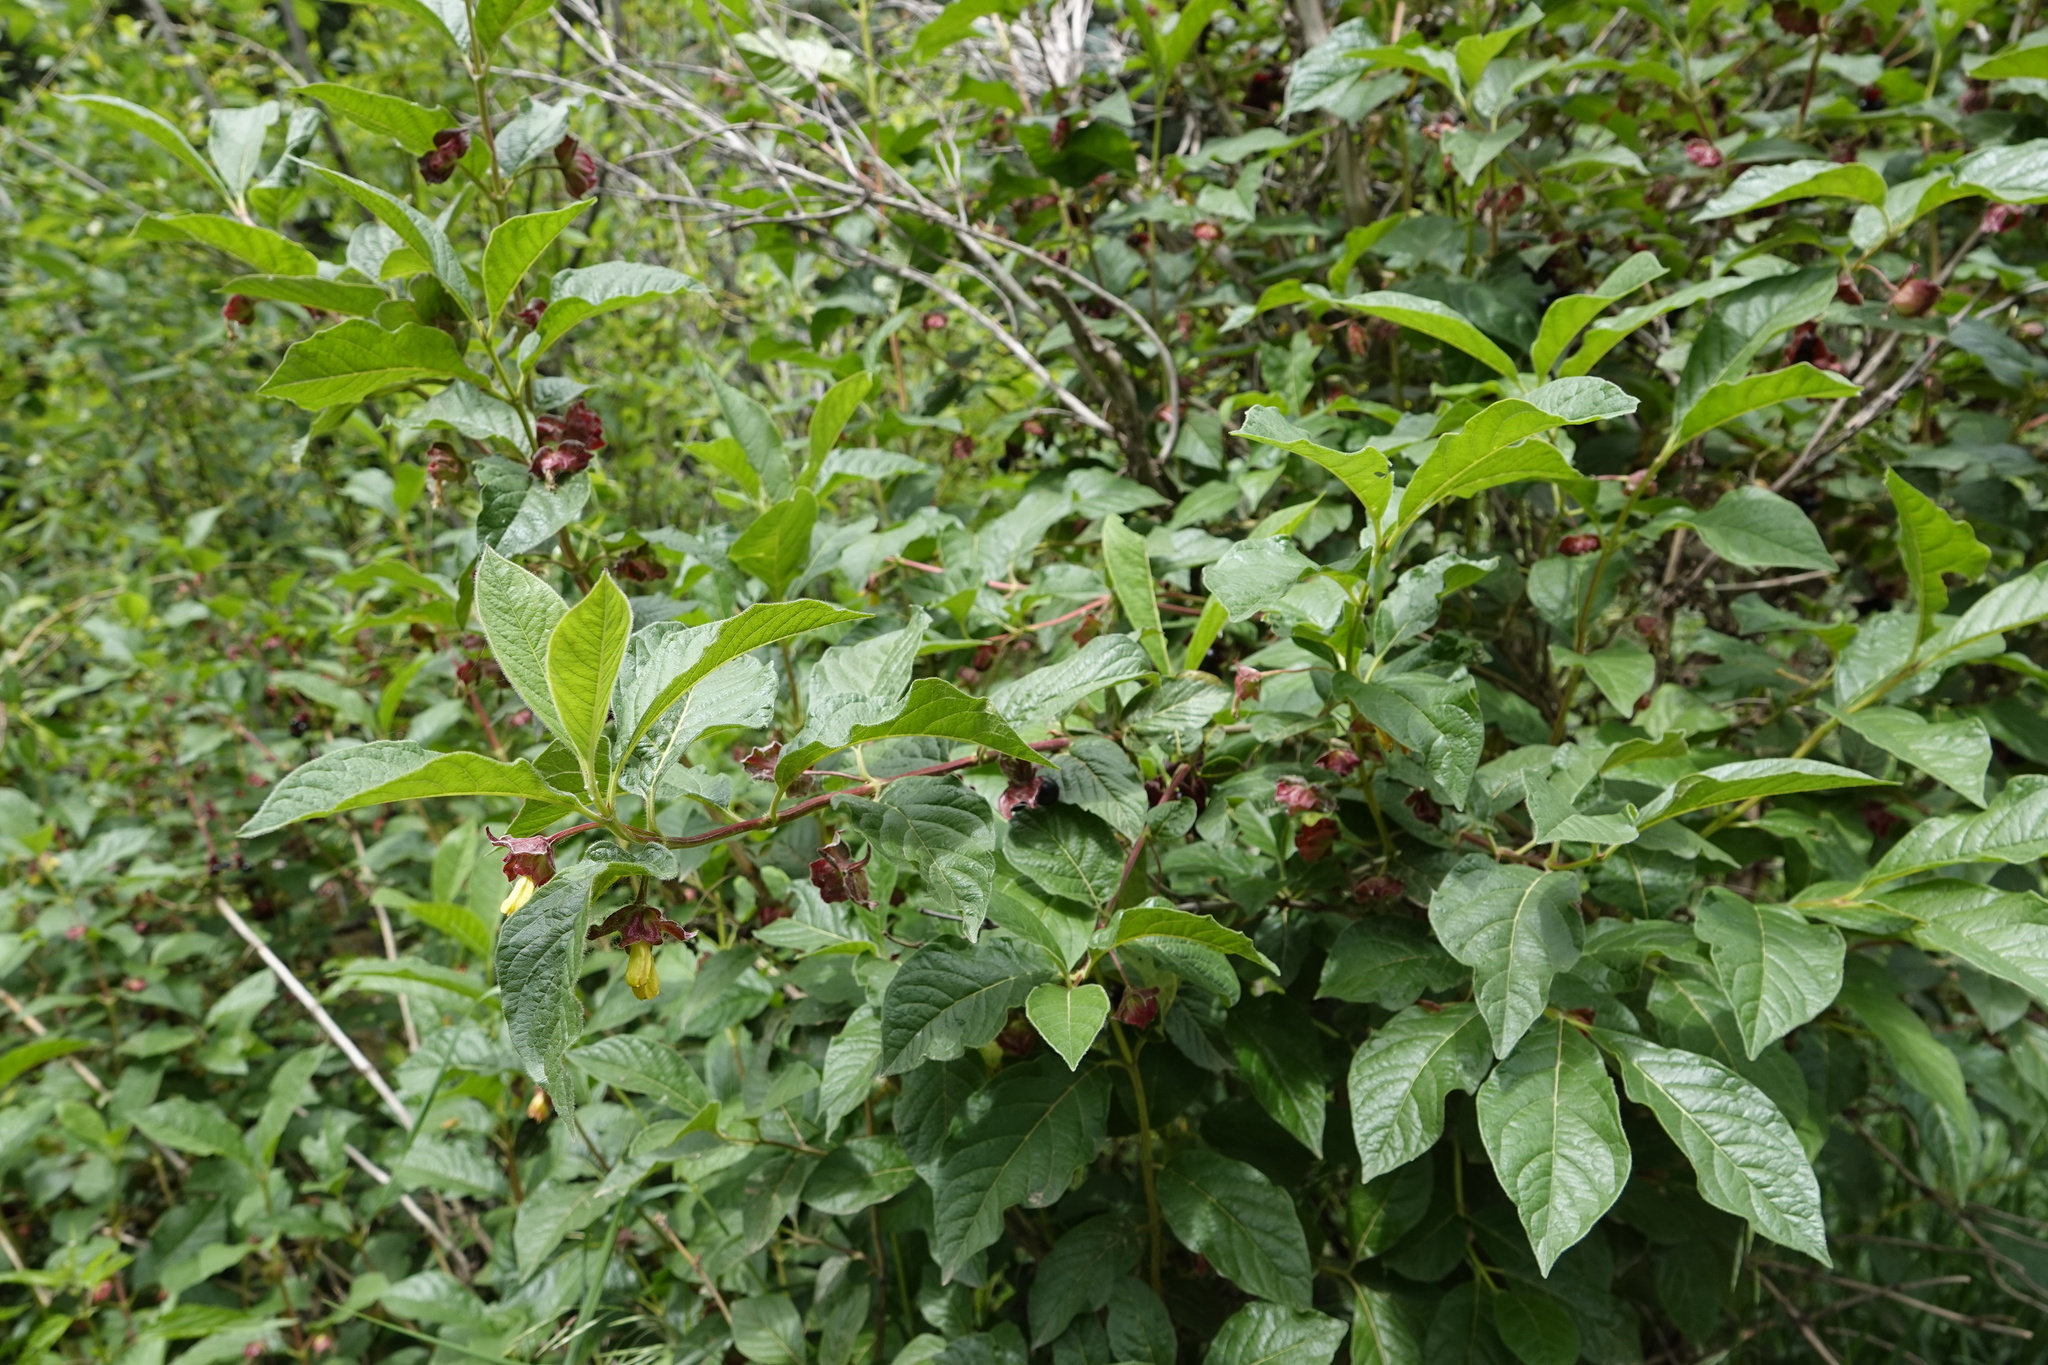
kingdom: Plantae
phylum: Tracheophyta
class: Magnoliopsida
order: Dipsacales
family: Caprifoliaceae
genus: Lonicera
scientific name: Lonicera involucrata
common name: Californian honeysuckle
